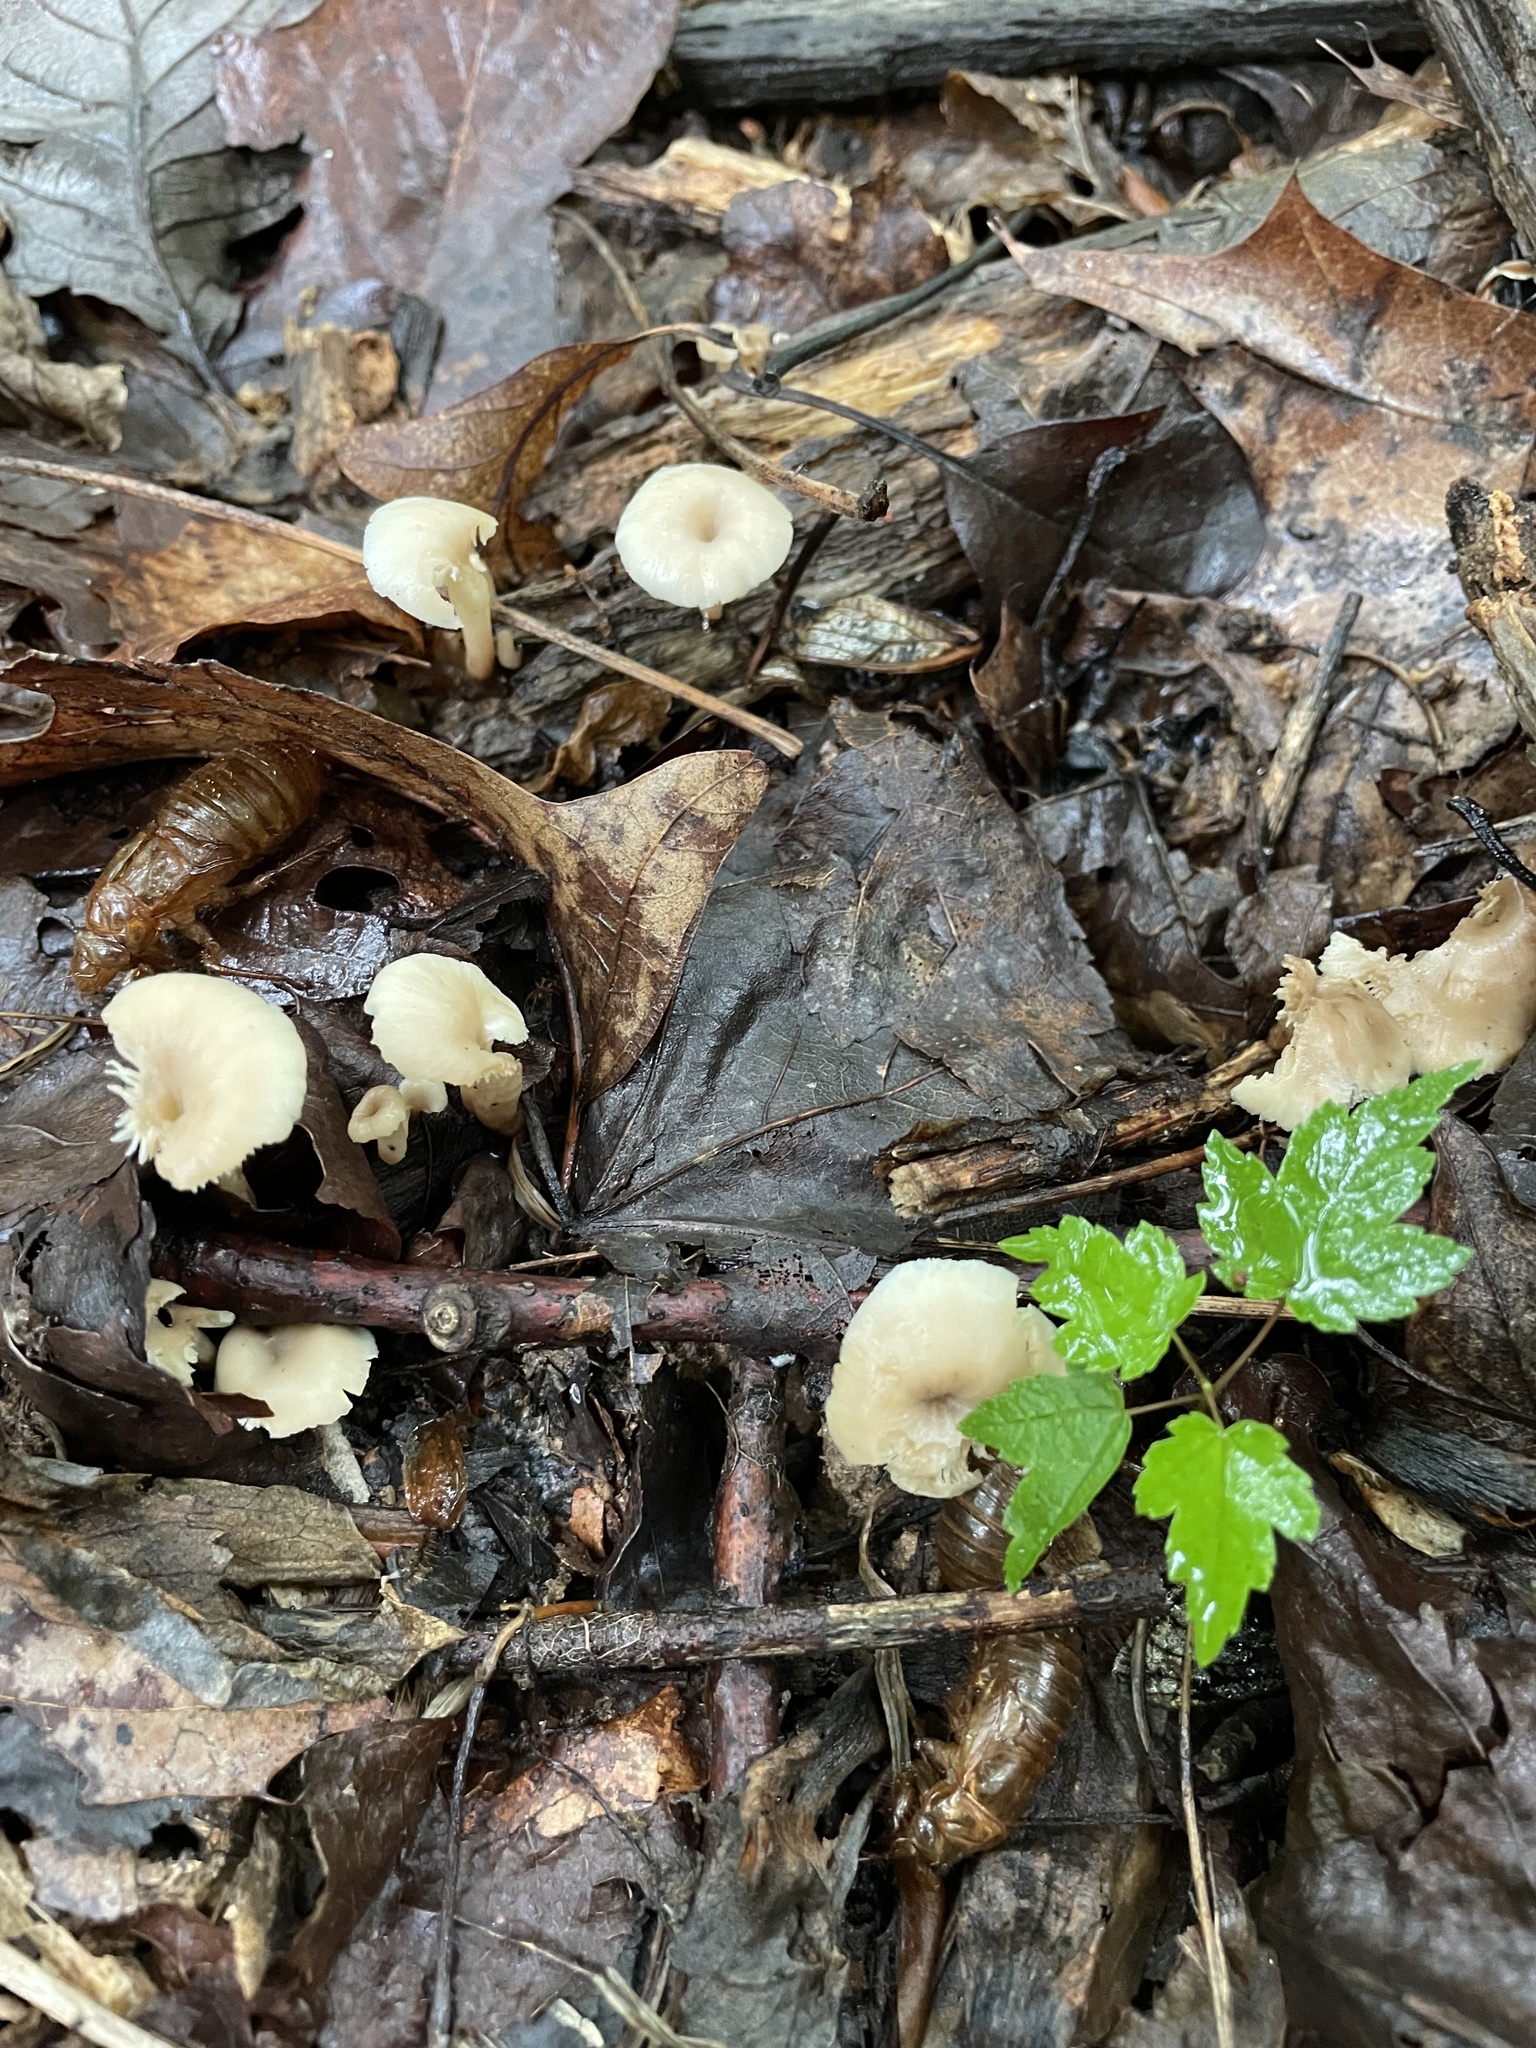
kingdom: Fungi
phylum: Basidiomycota
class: Agaricomycetes
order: Russulales
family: Auriscalpiaceae
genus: Lentinellus
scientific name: Lentinellus micheneri
